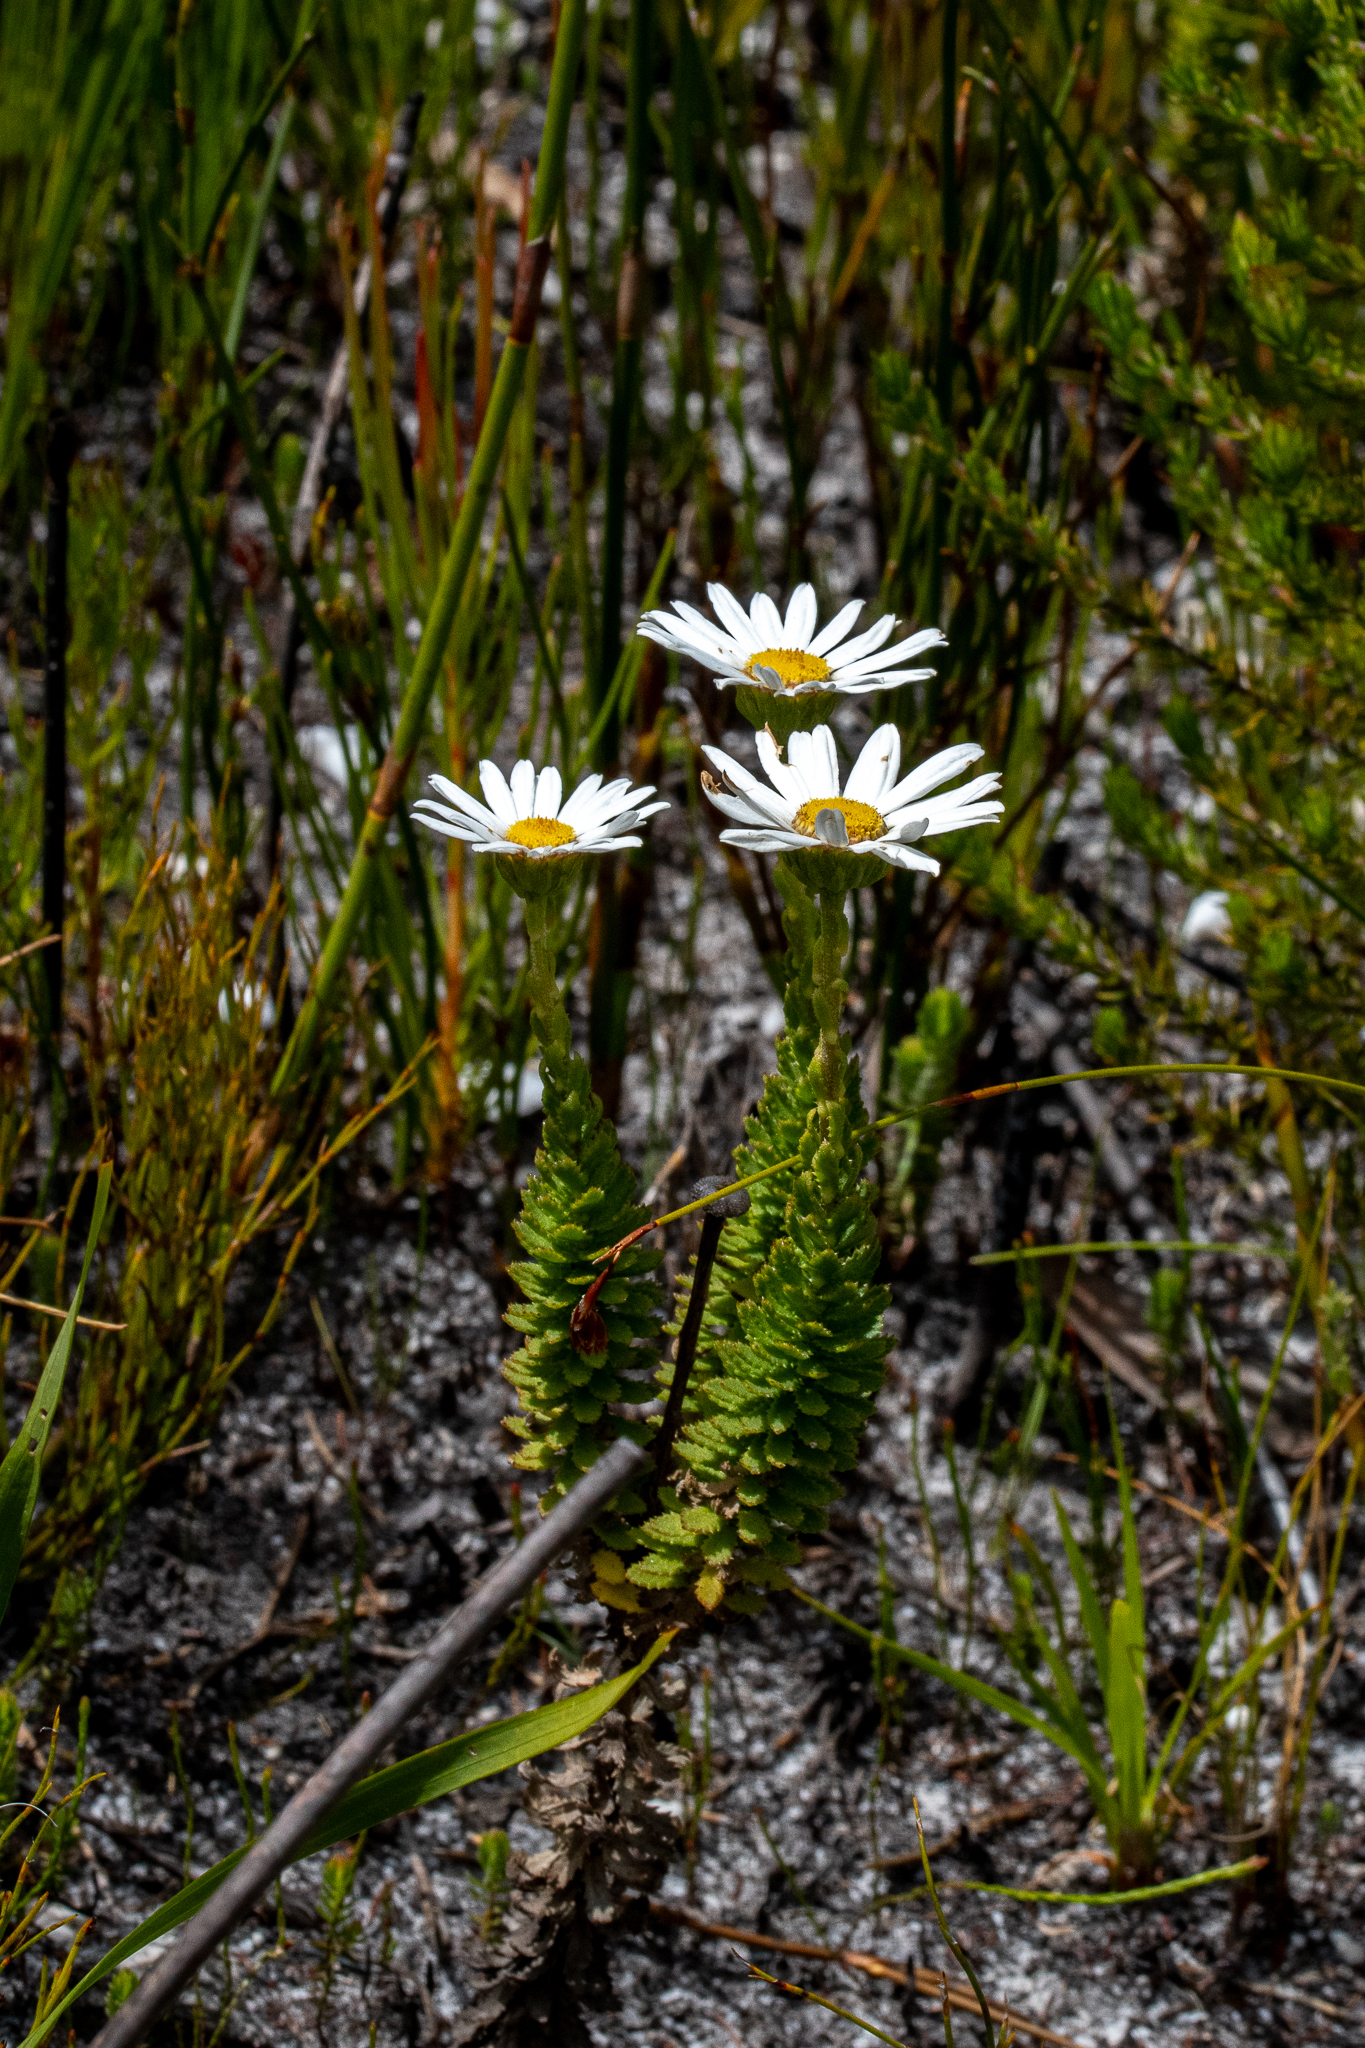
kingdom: Plantae
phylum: Tracheophyta
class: Magnoliopsida
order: Asterales
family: Asteraceae
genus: Osmitopsis
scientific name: Osmitopsis afra
